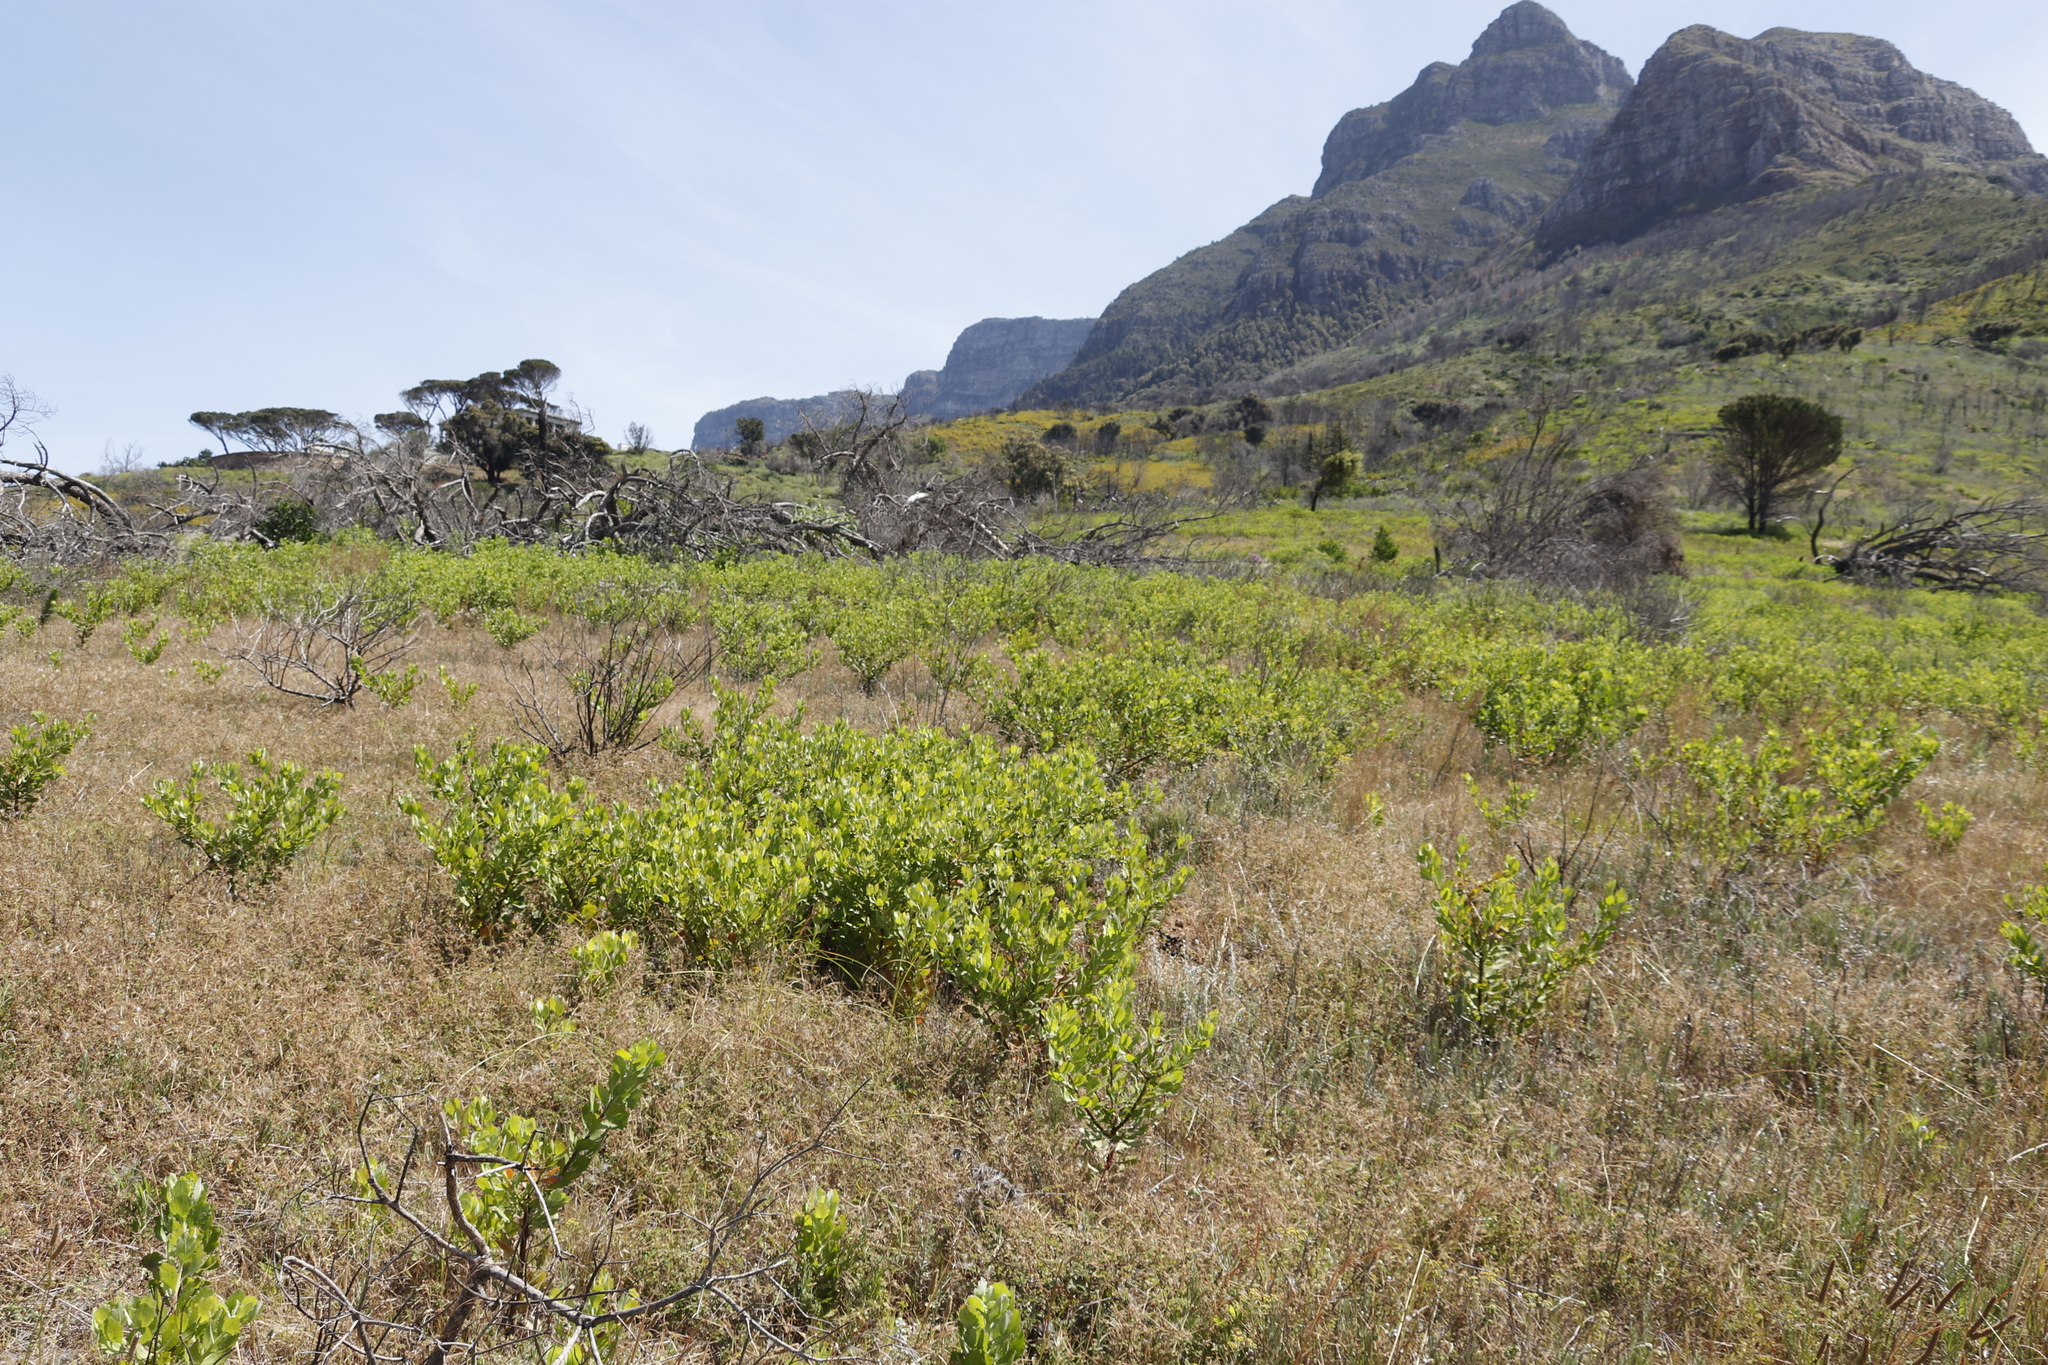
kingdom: Plantae
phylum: Tracheophyta
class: Magnoliopsida
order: Asterales
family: Asteraceae
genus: Osteospermum
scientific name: Osteospermum moniliferum
